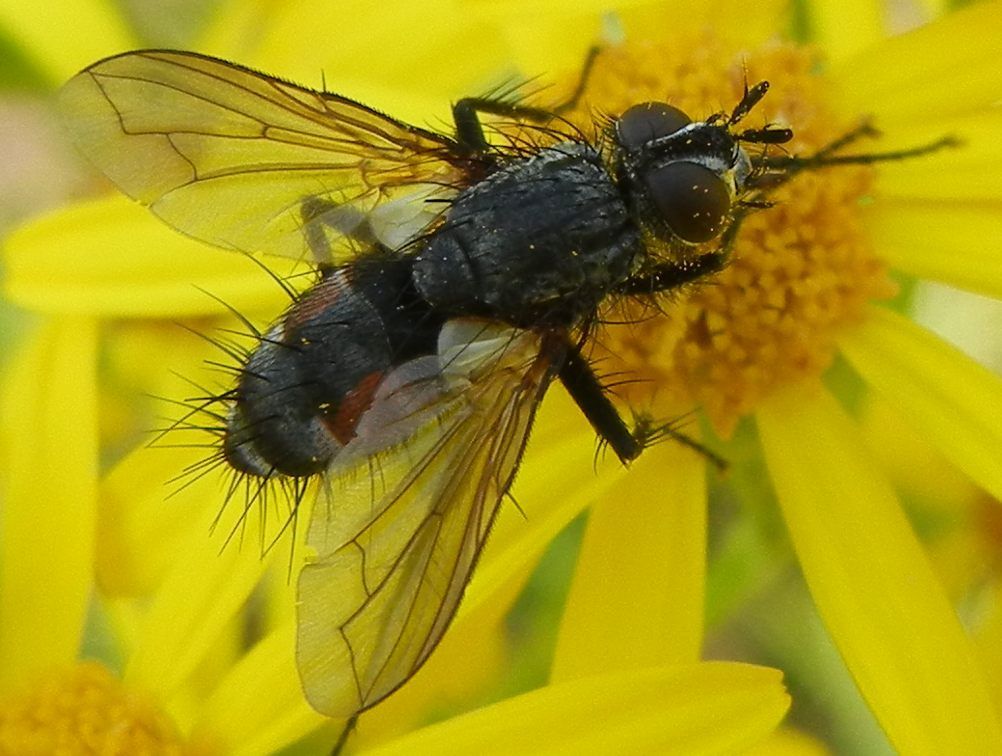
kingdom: Animalia
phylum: Arthropoda
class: Insecta
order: Diptera
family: Tachinidae
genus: Eriothrix
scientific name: Eriothrix rufomaculatus
